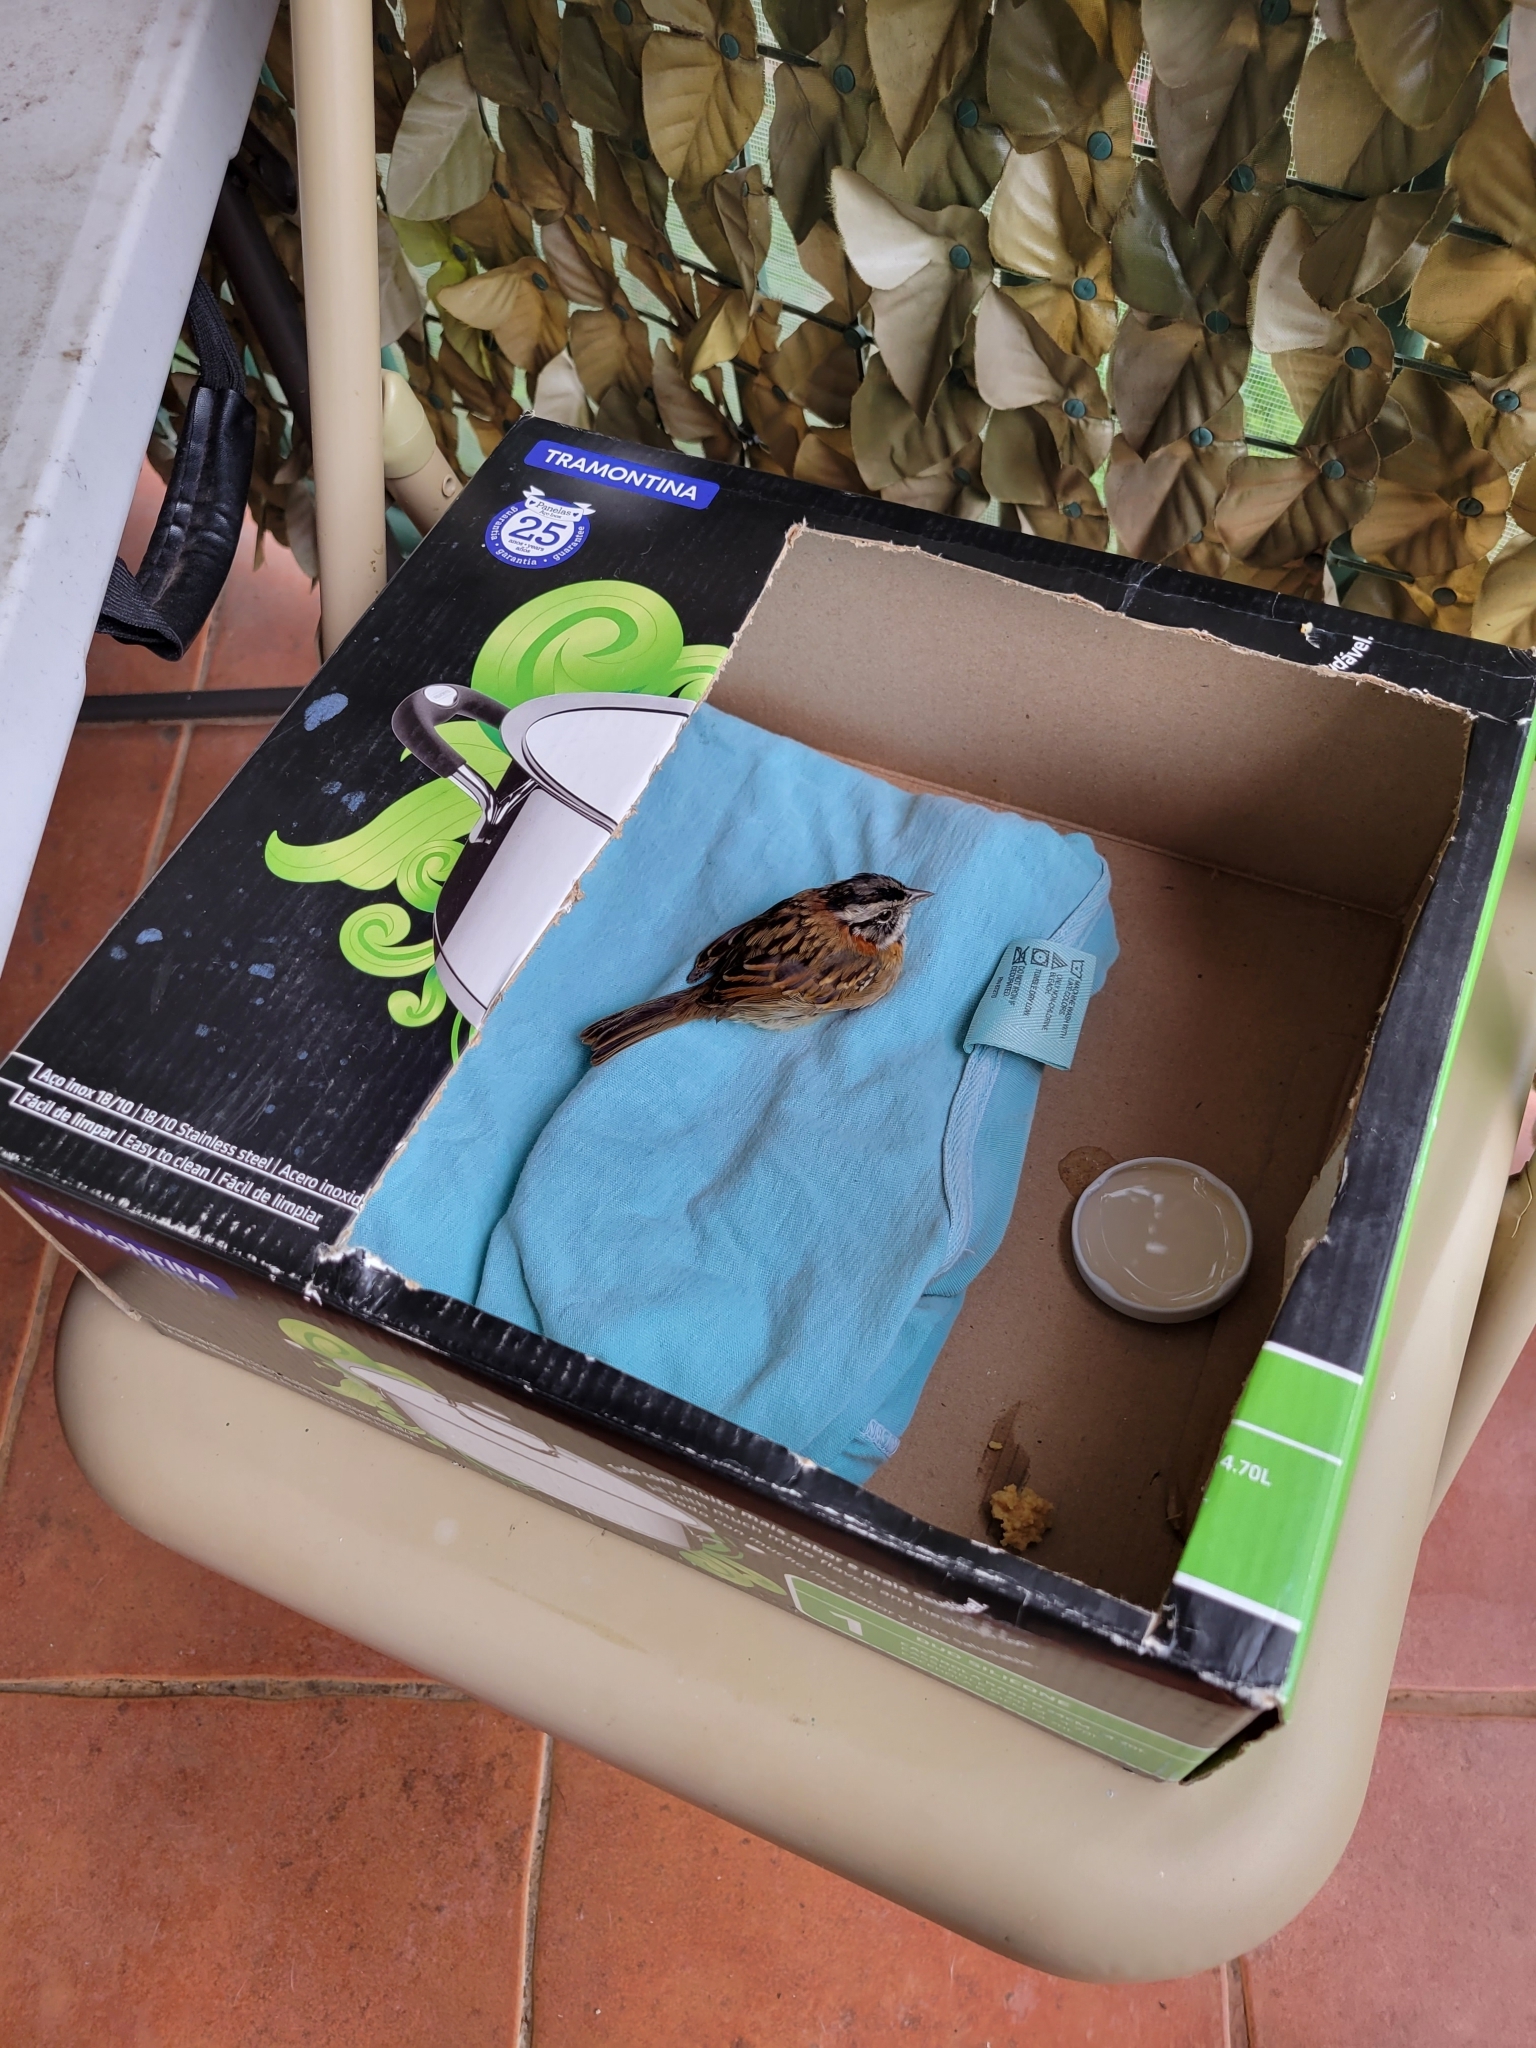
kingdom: Animalia
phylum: Chordata
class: Aves
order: Passeriformes
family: Passerellidae
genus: Zonotrichia
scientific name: Zonotrichia capensis
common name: Rufous-collared sparrow
